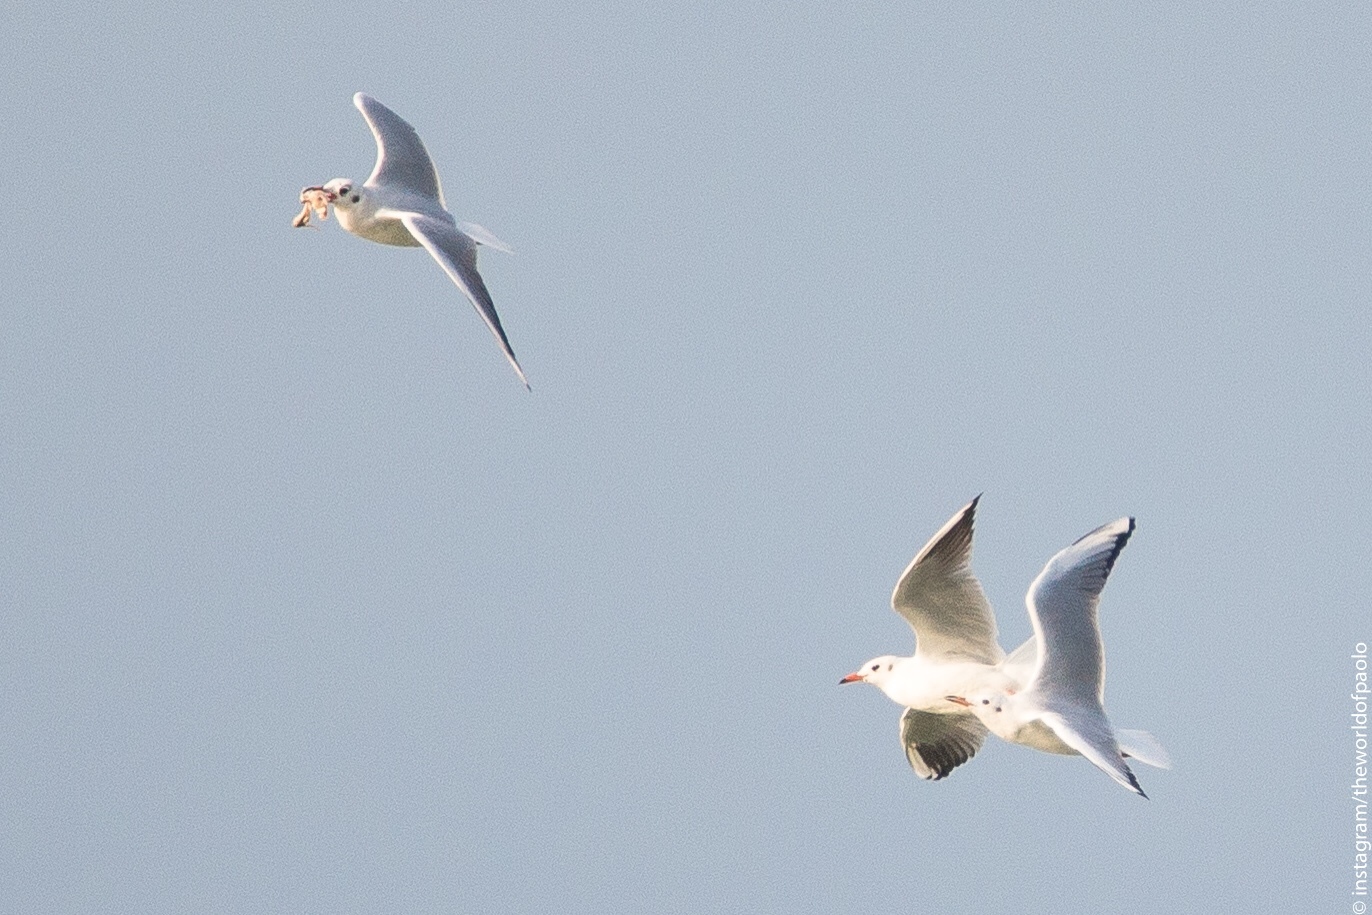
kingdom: Animalia
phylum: Chordata
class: Aves
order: Charadriiformes
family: Laridae
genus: Chroicocephalus
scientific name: Chroicocephalus ridibundus
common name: Black-headed gull
